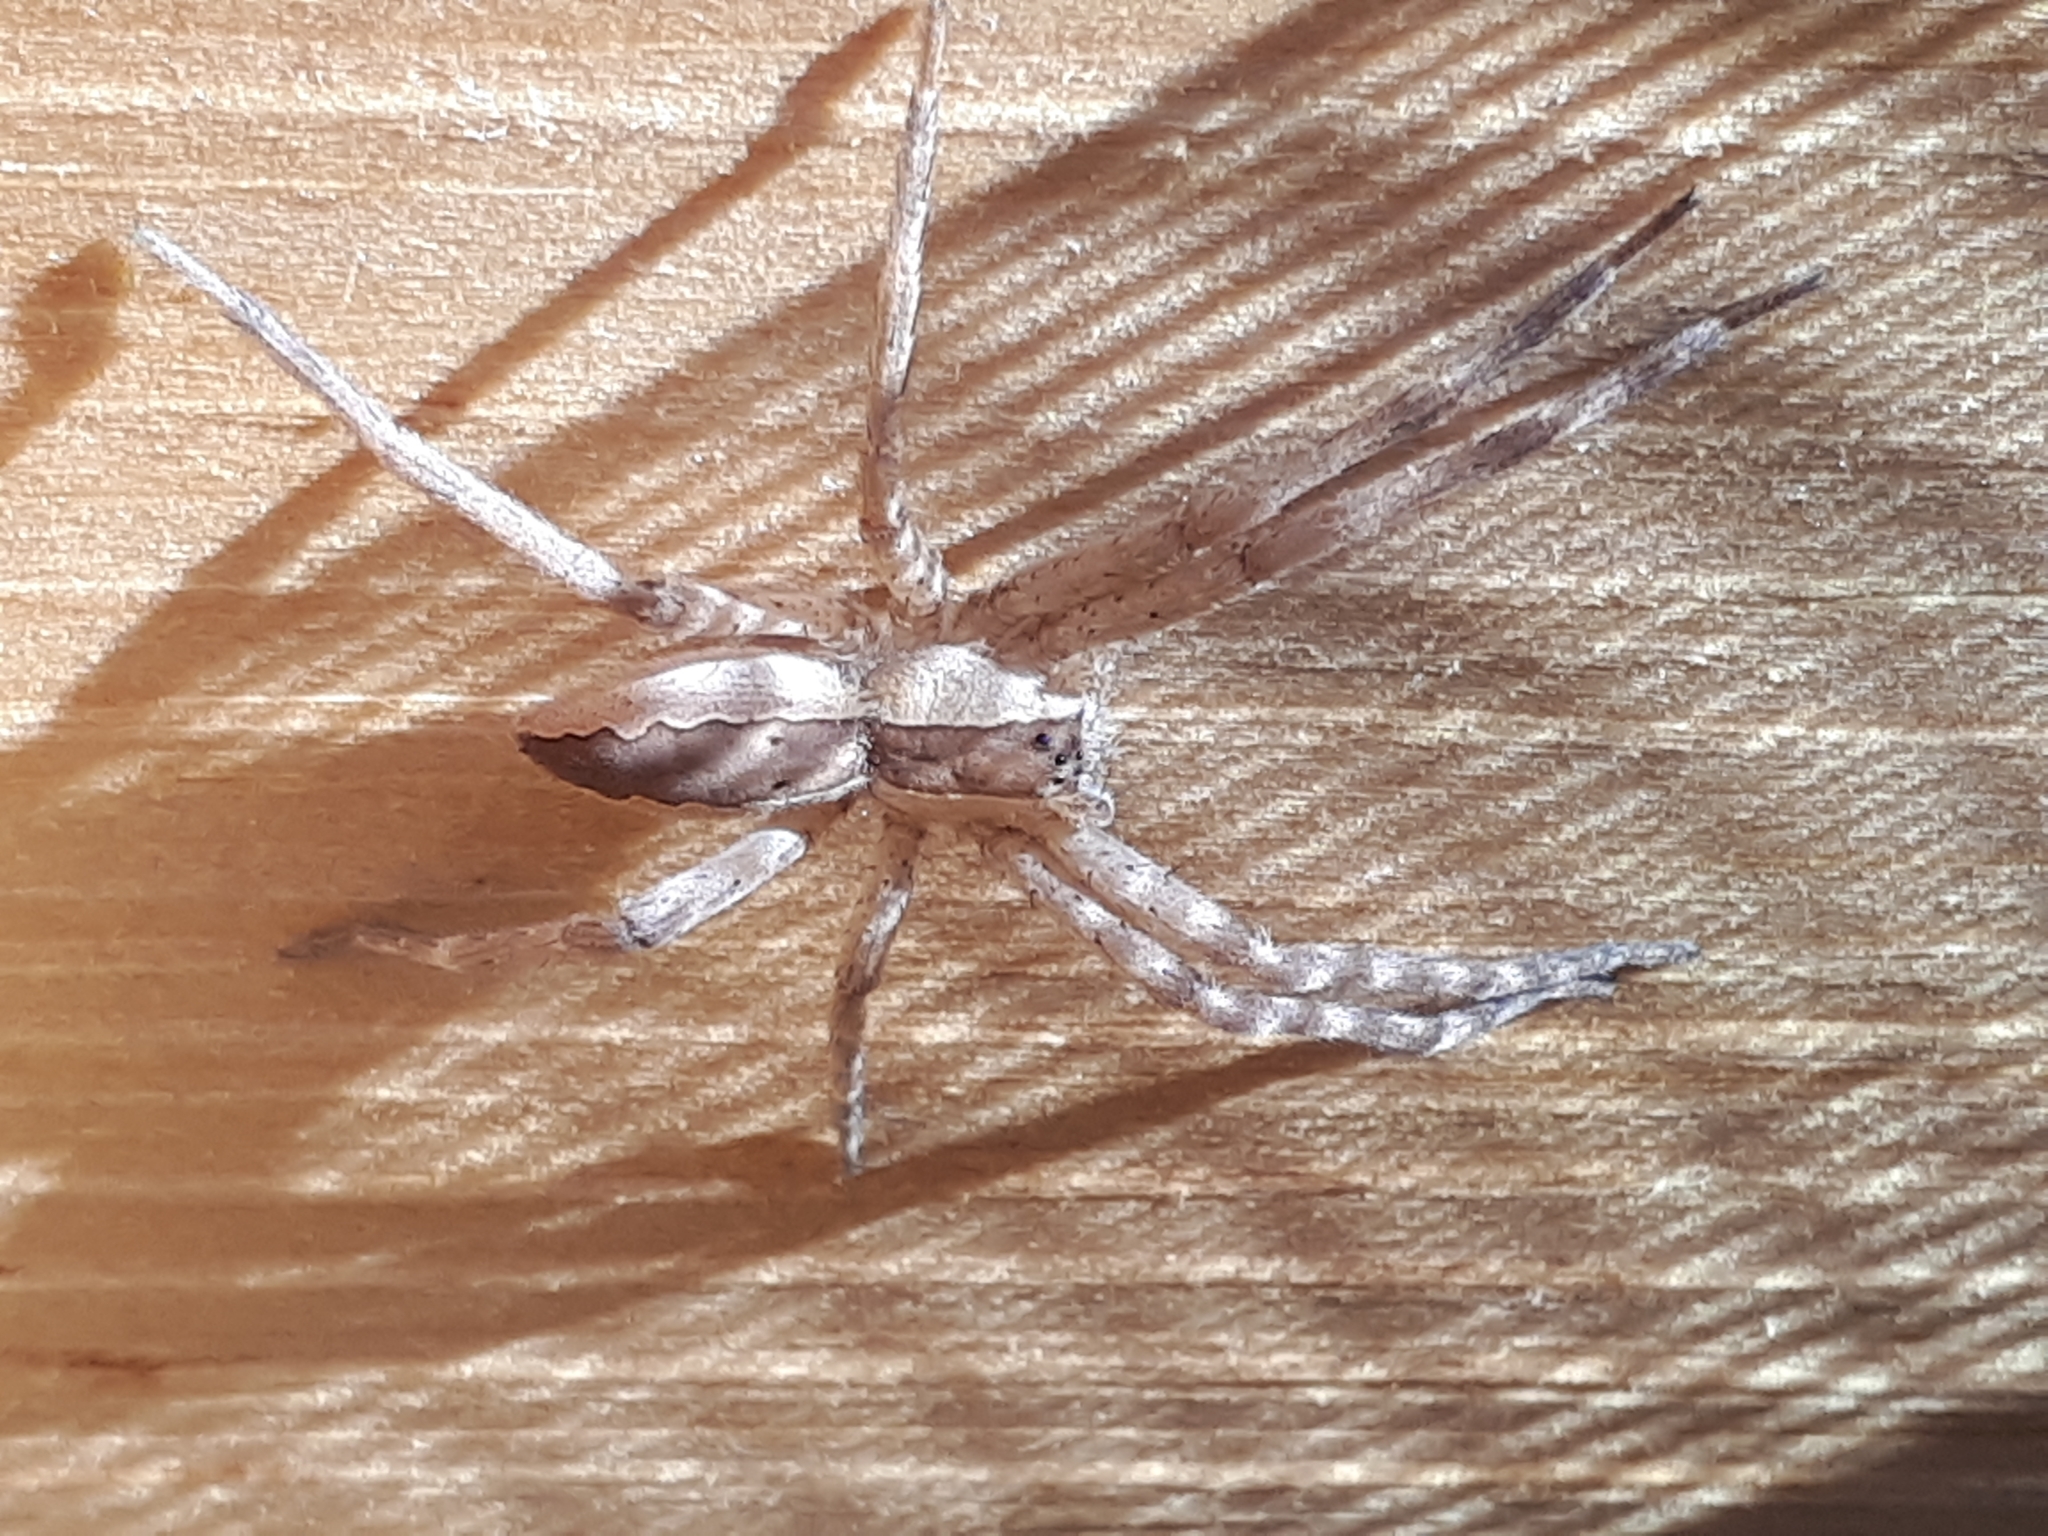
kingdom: Animalia
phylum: Arthropoda
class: Arachnida
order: Araneae
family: Pisauridae
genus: Pisaurina
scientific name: Pisaurina mira
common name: American nursery web spider
